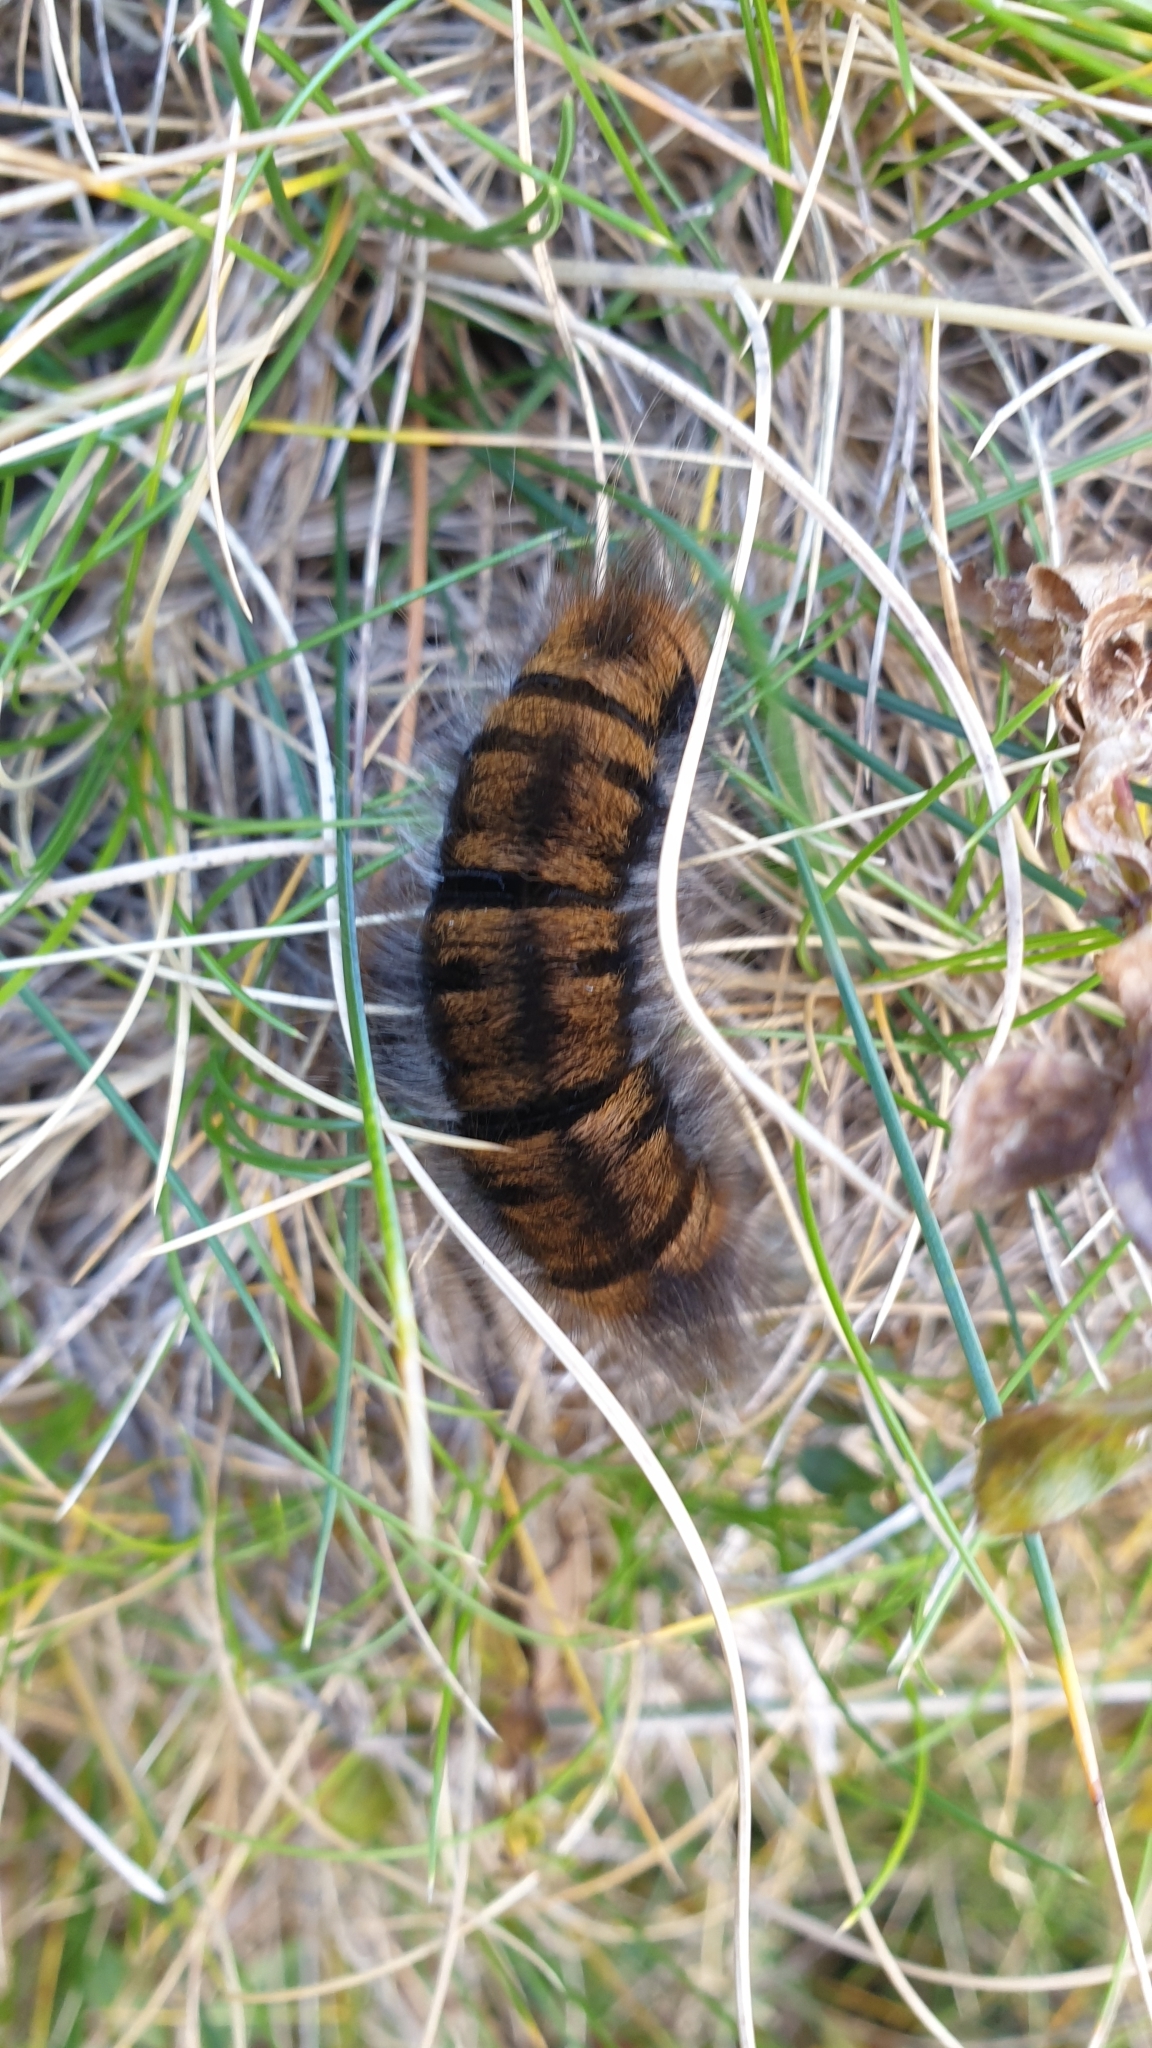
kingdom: Animalia
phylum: Arthropoda
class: Insecta
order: Lepidoptera
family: Lasiocampidae
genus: Macrothylacia
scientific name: Macrothylacia rubi
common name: Fox moth
